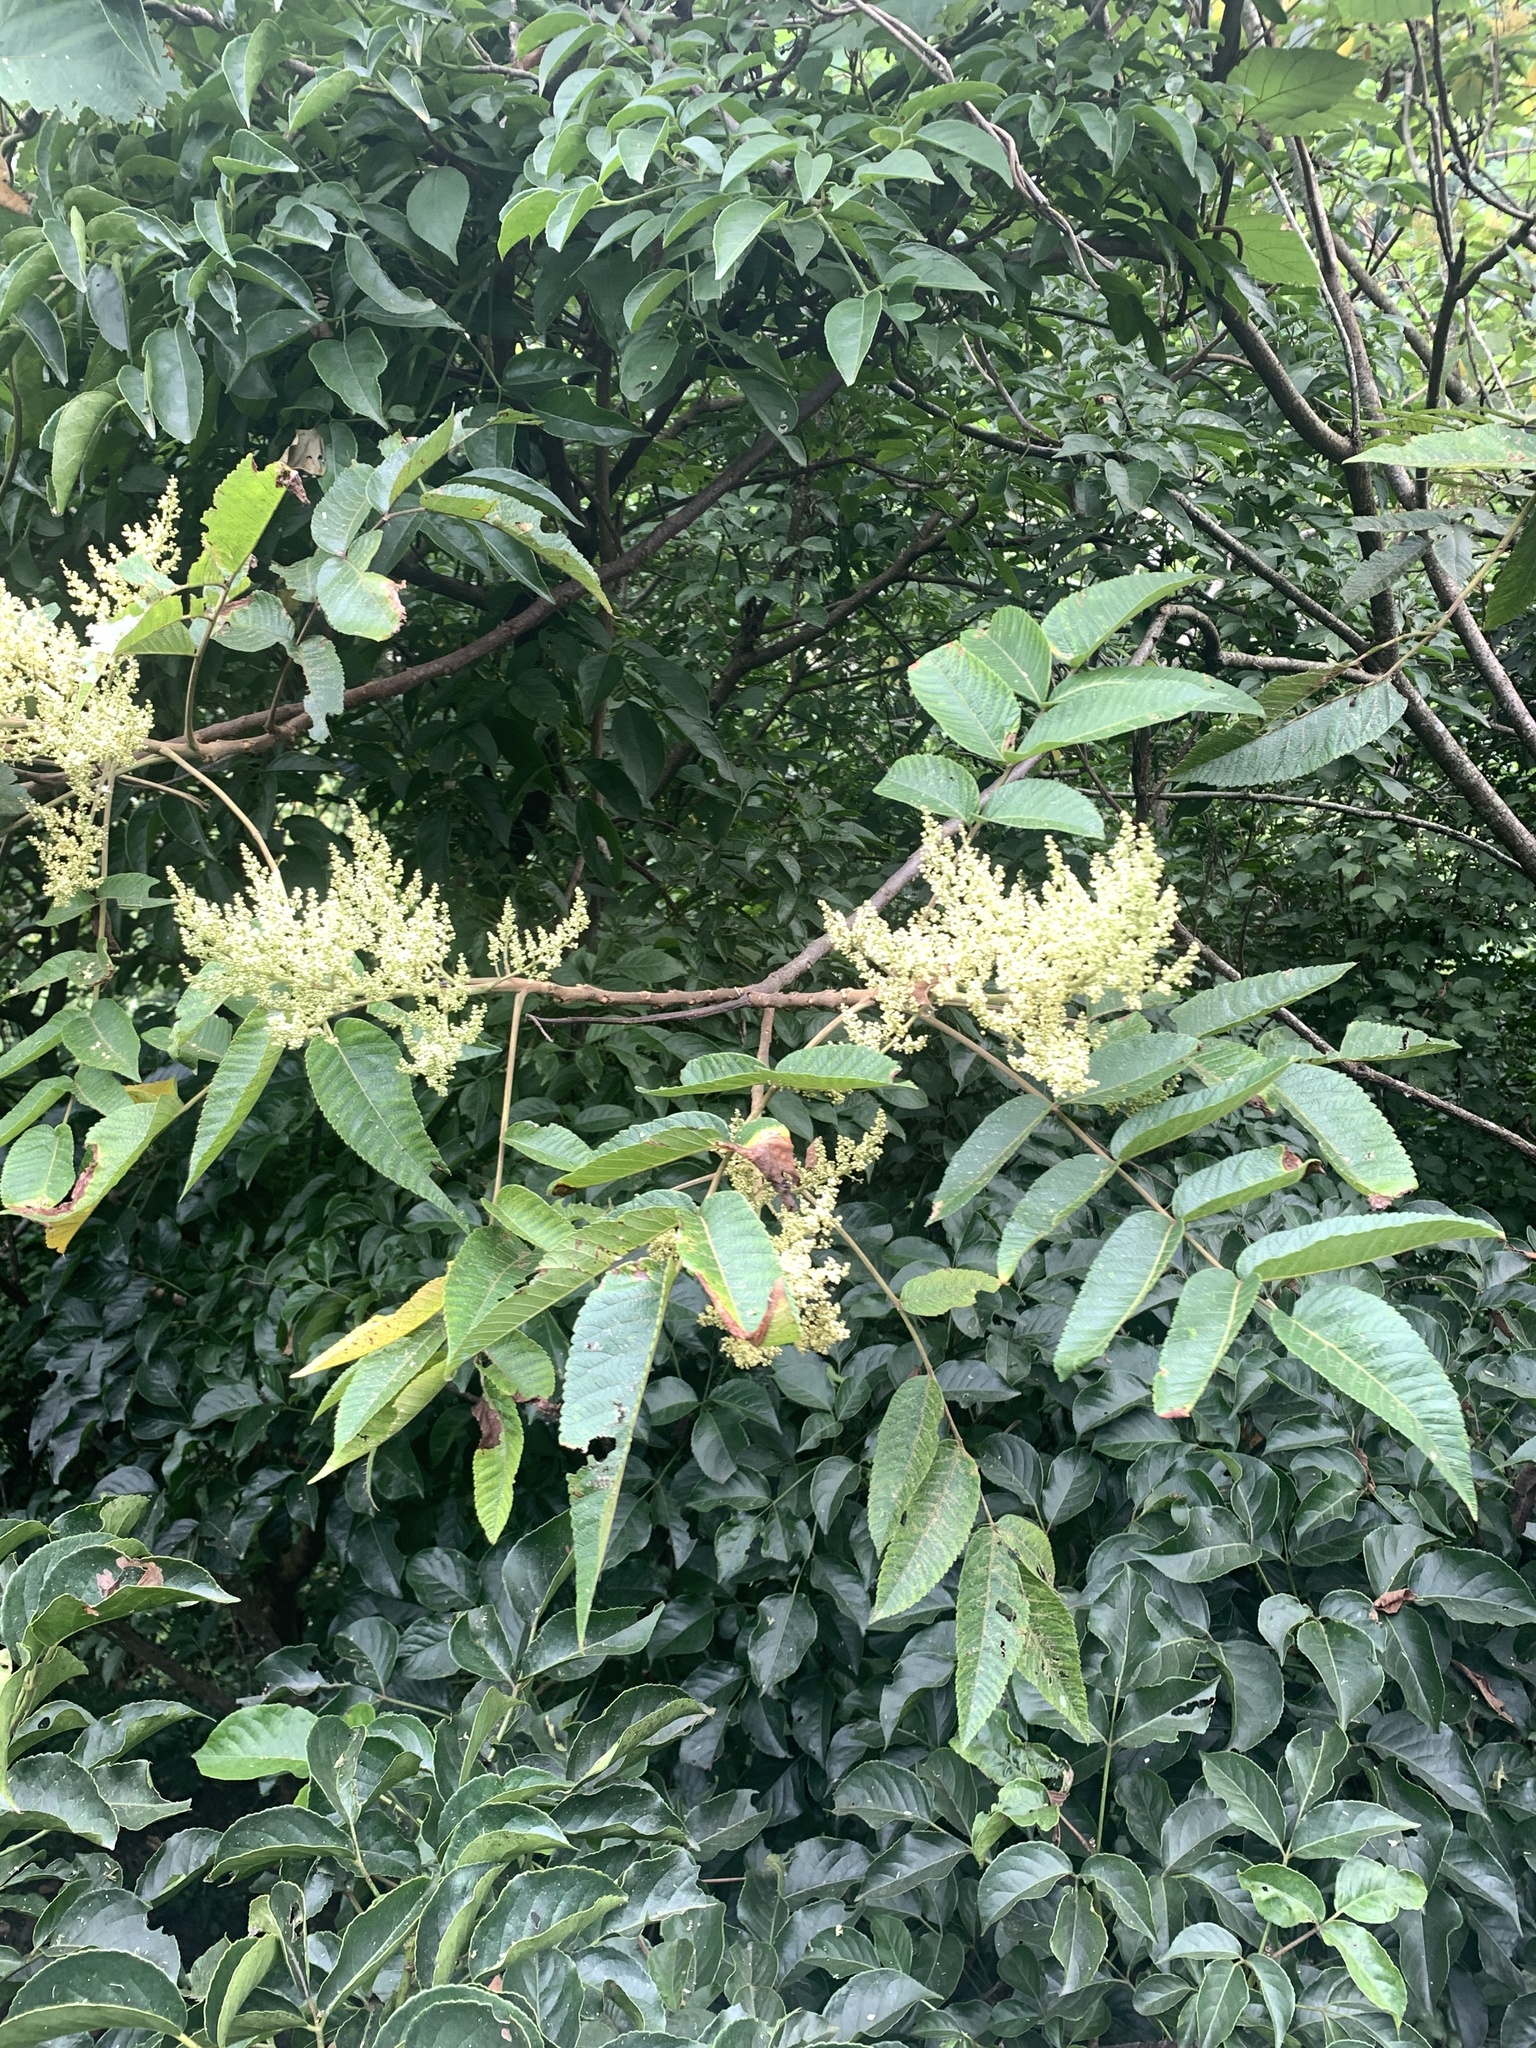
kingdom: Plantae
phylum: Tracheophyta
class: Magnoliopsida
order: Sapindales
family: Anacardiaceae
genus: Rhus
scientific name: Rhus chinensis
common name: Chinese gall
